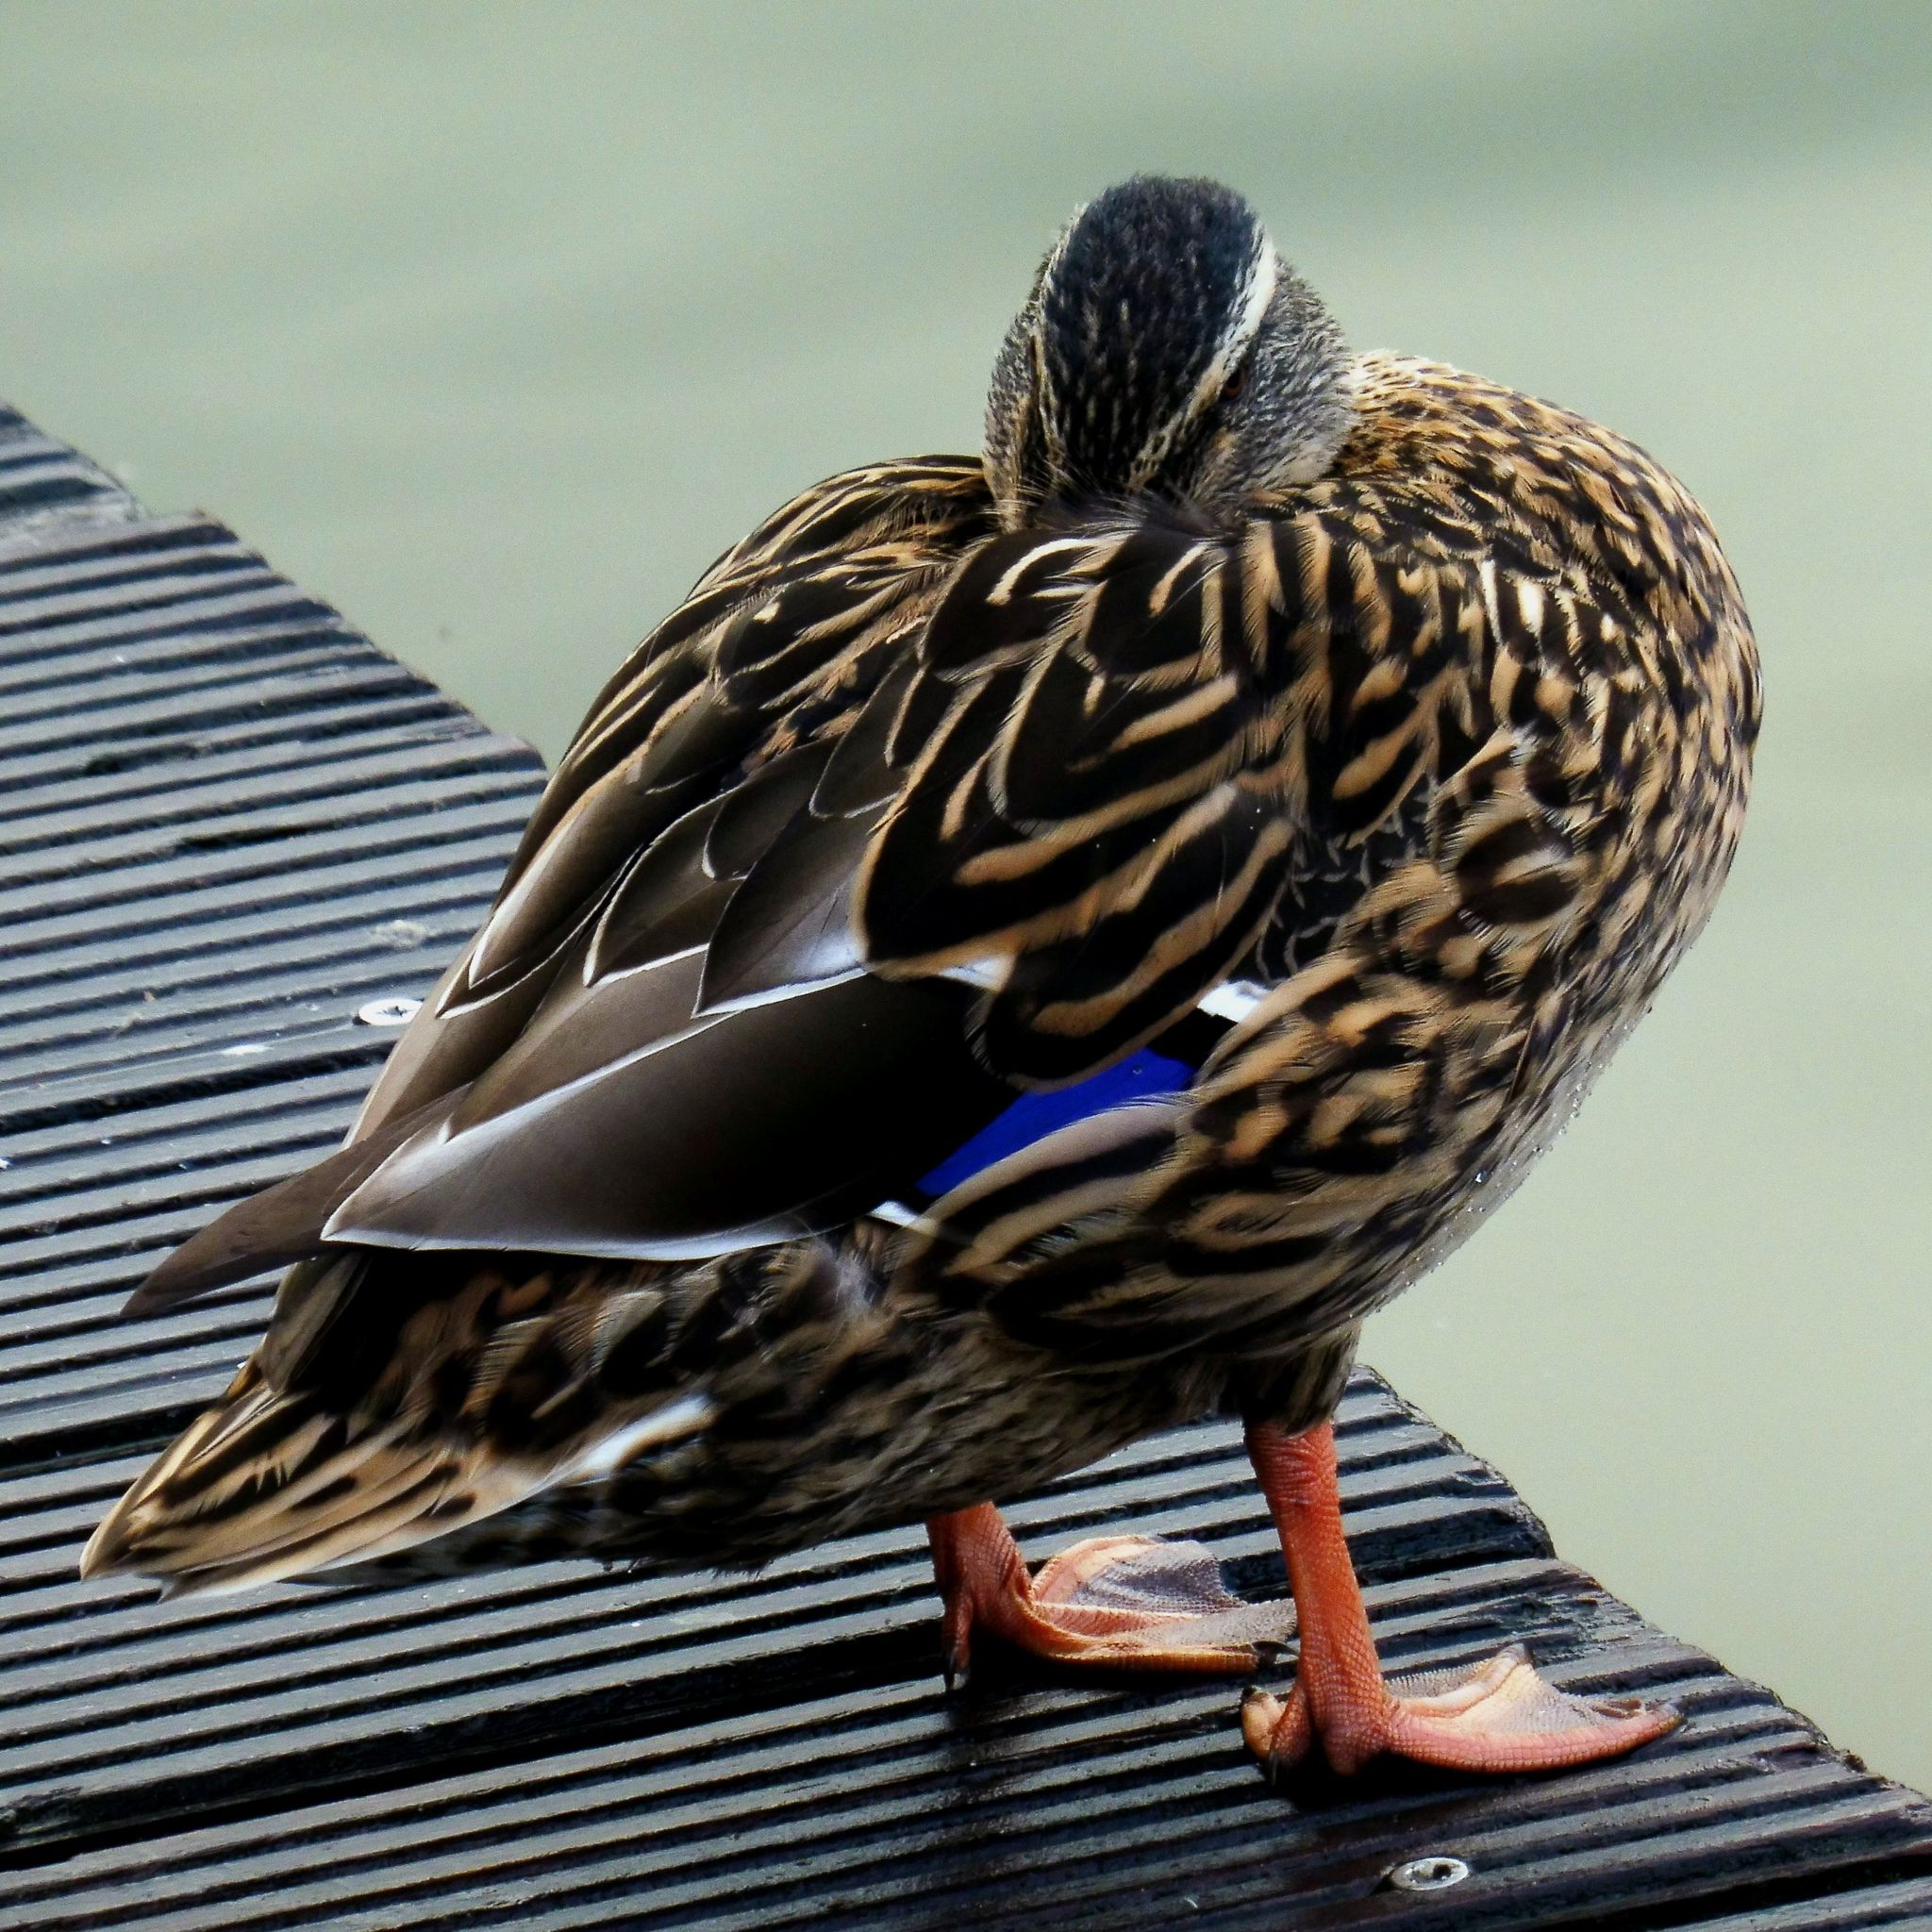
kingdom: Animalia
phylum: Chordata
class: Aves
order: Anseriformes
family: Anatidae
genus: Anas
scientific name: Anas platyrhynchos
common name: Mallard
